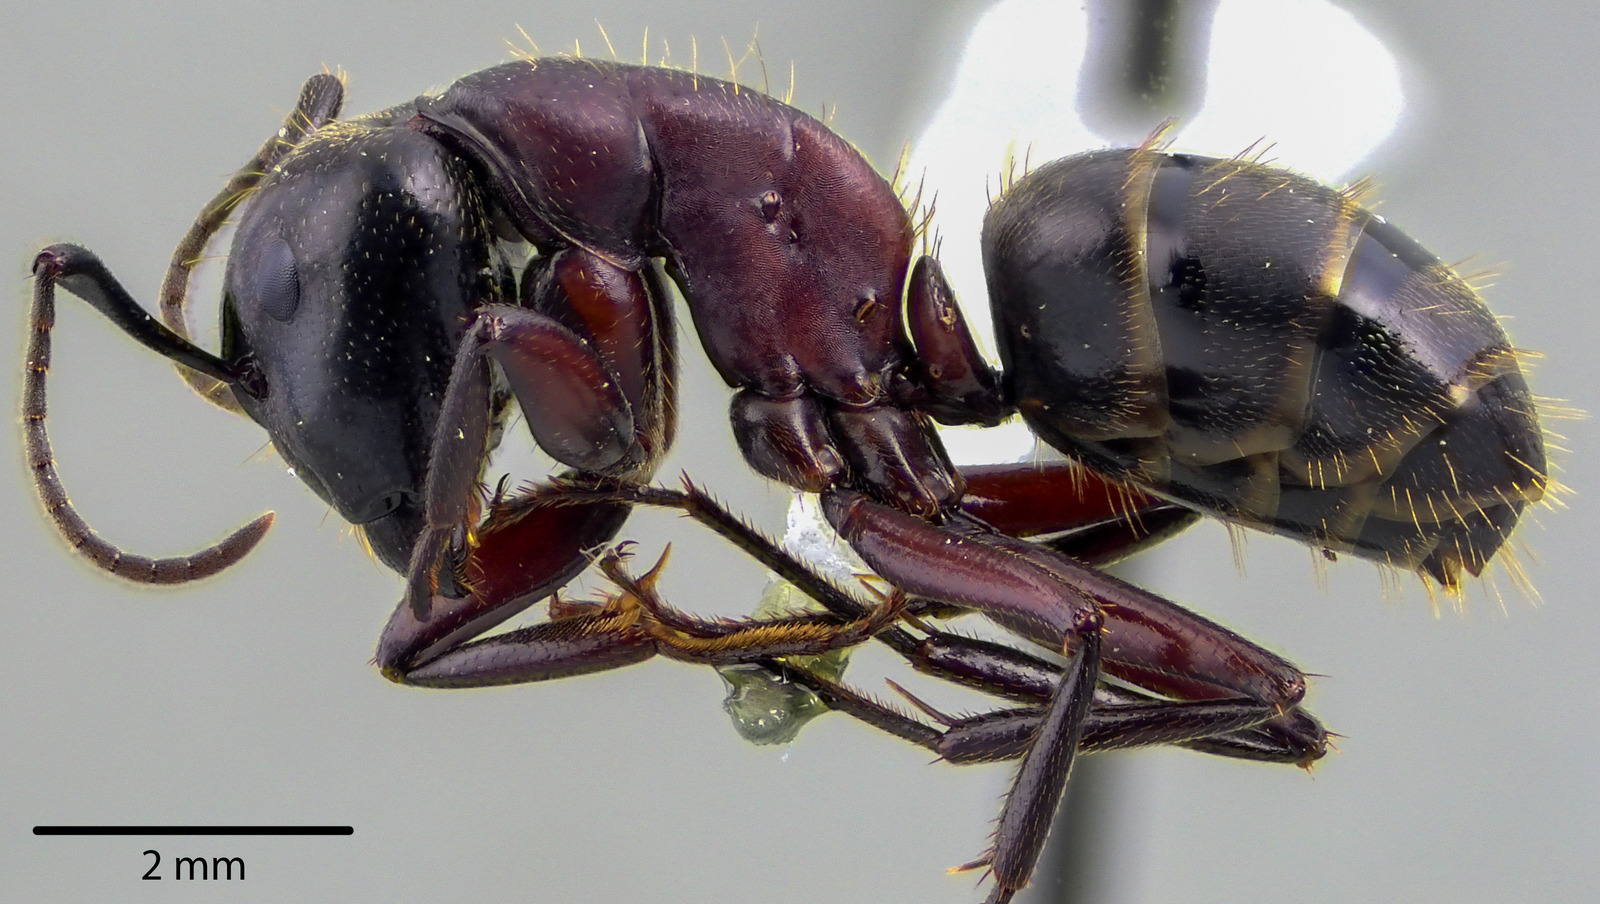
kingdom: Animalia
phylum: Arthropoda
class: Insecta
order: Hymenoptera
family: Formicidae
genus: Camponotus
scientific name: Camponotus novaeboracensis
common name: New york carpenter ant
